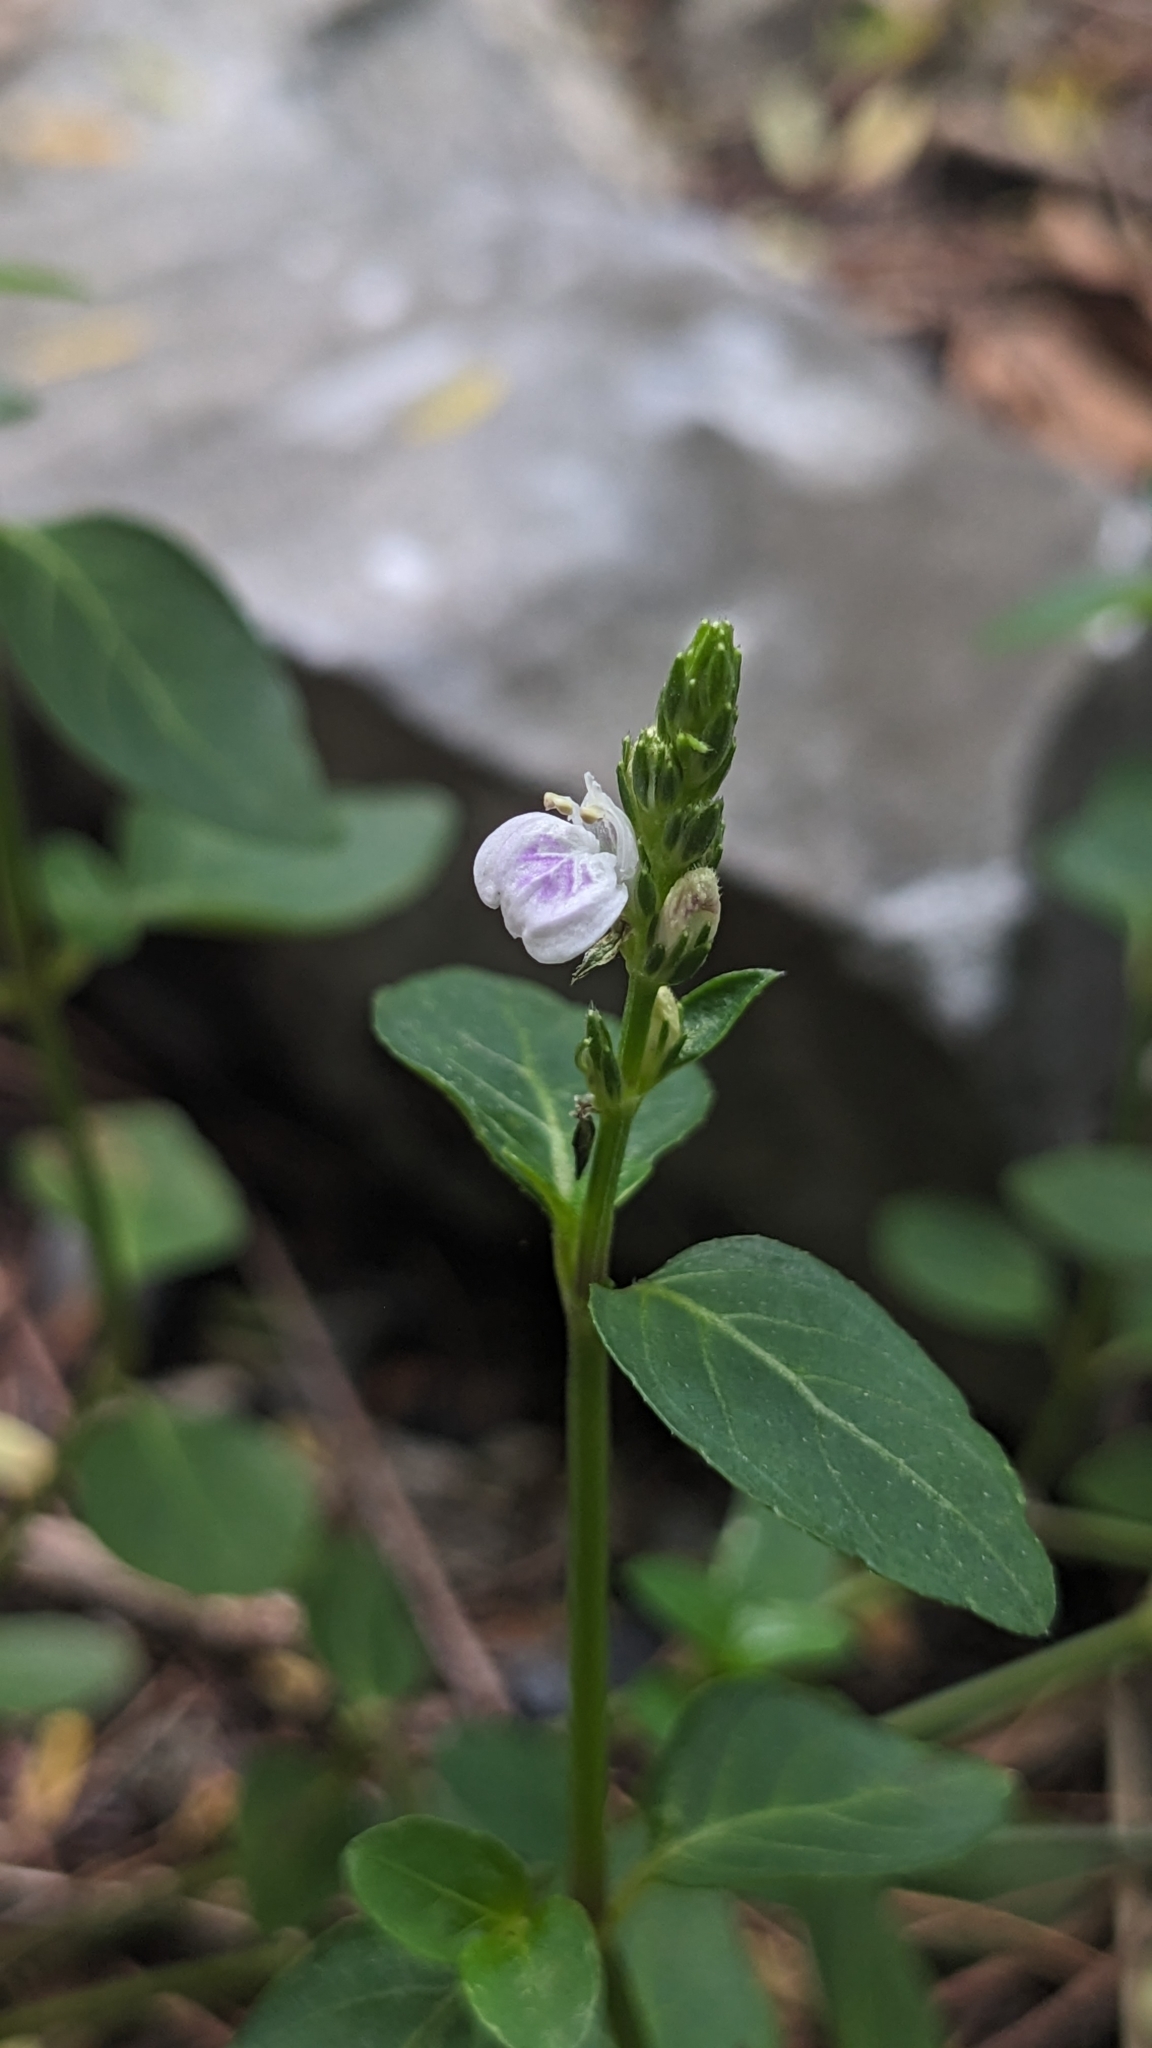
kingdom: Plantae
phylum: Tracheophyta
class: Magnoliopsida
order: Lamiales
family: Acanthaceae
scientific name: Acanthaceae
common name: Acanthaceae
